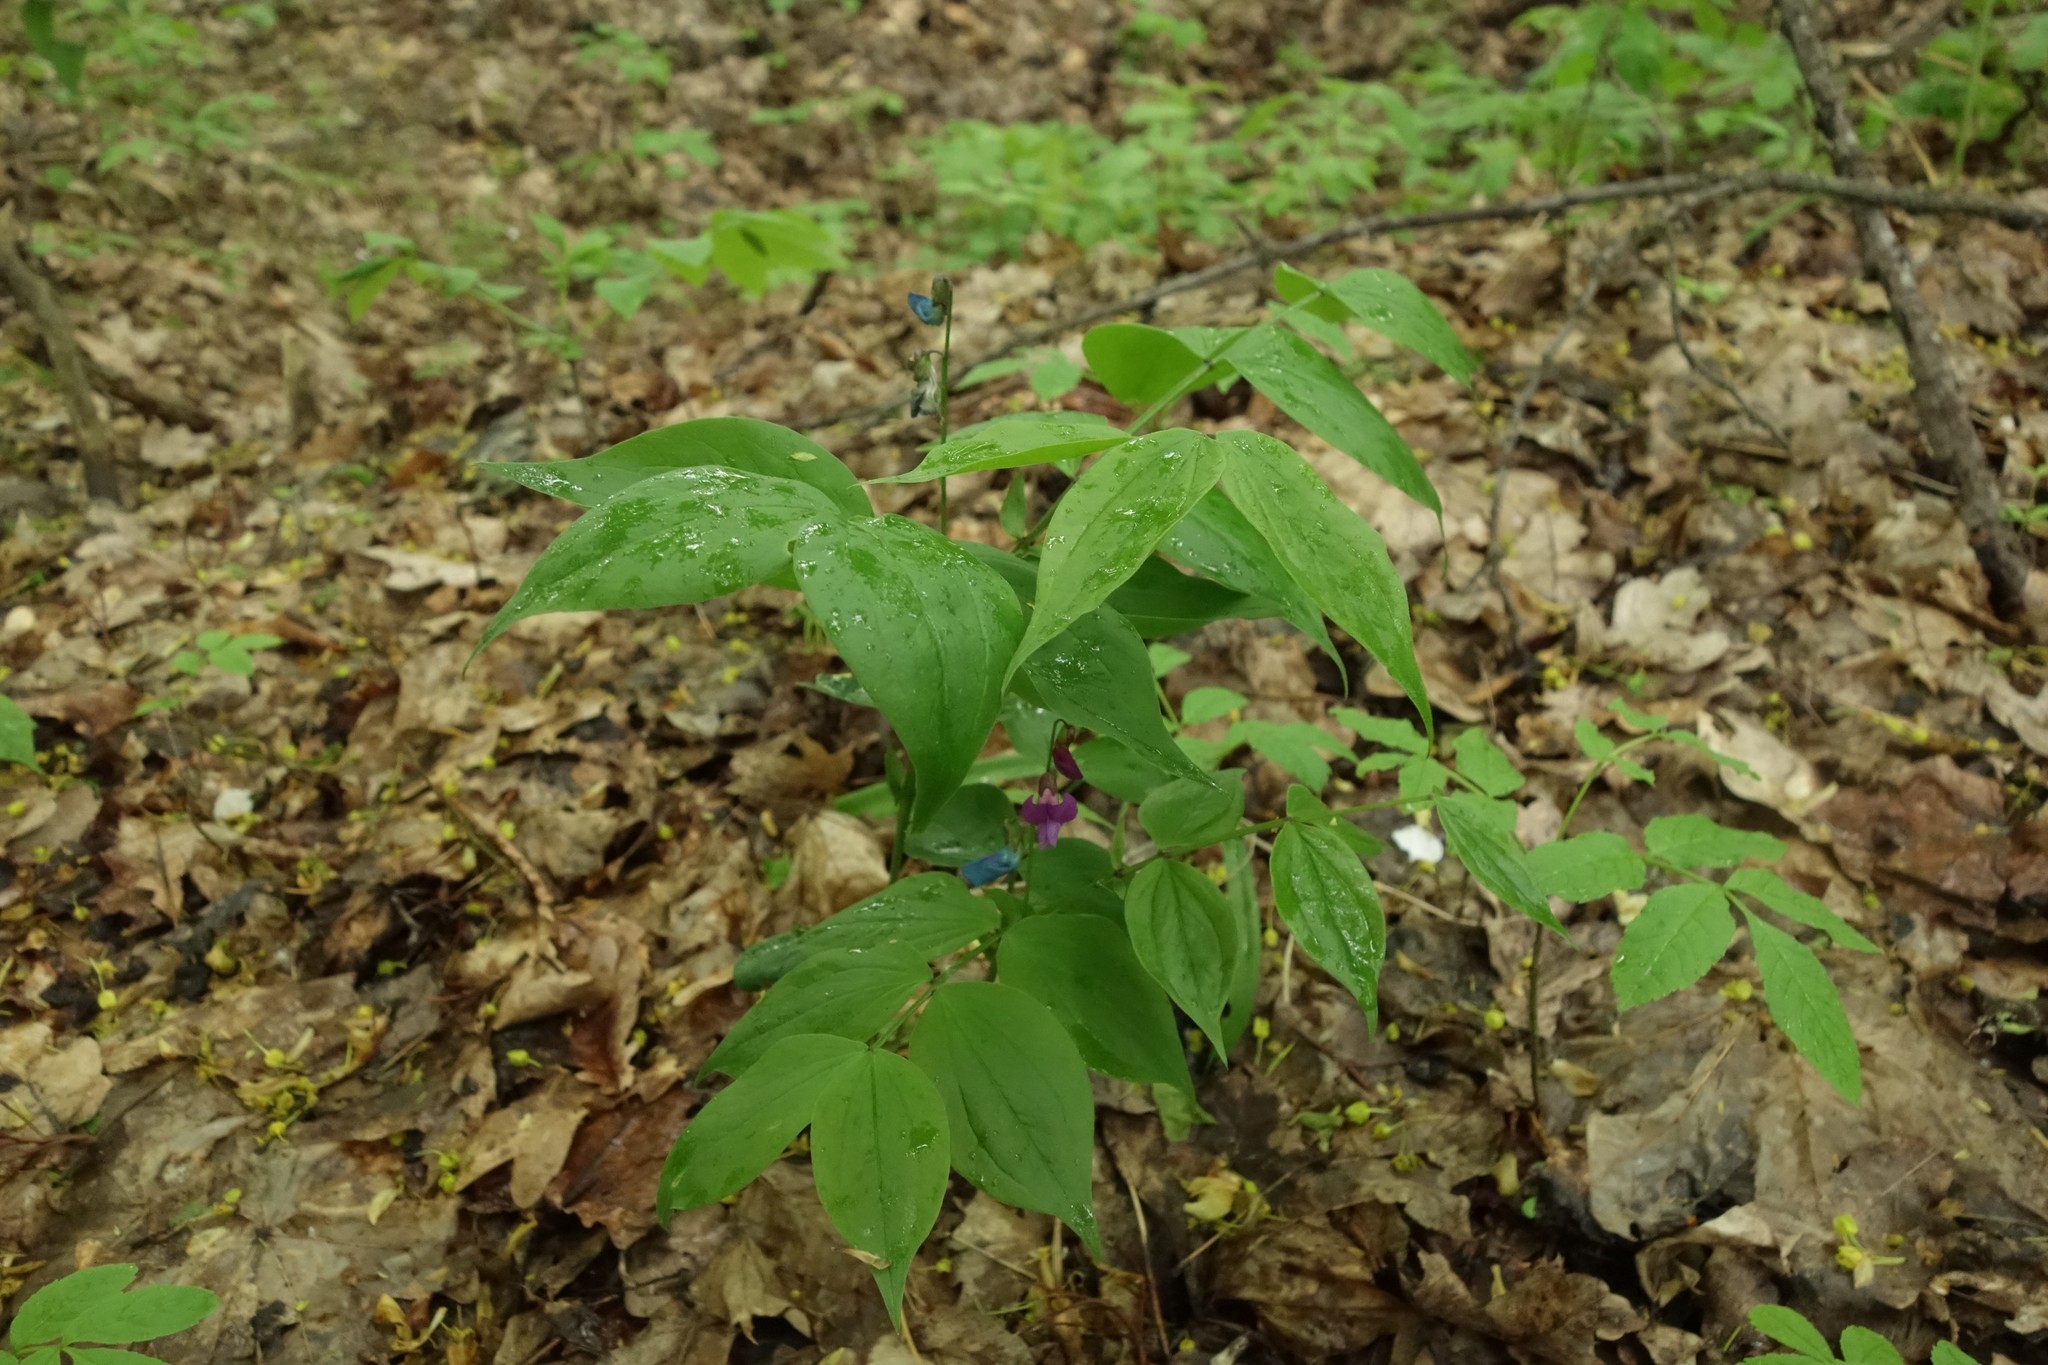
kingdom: Plantae
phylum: Tracheophyta
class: Magnoliopsida
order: Fabales
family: Fabaceae
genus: Lathyrus
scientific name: Lathyrus vernus
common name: Spring pea
